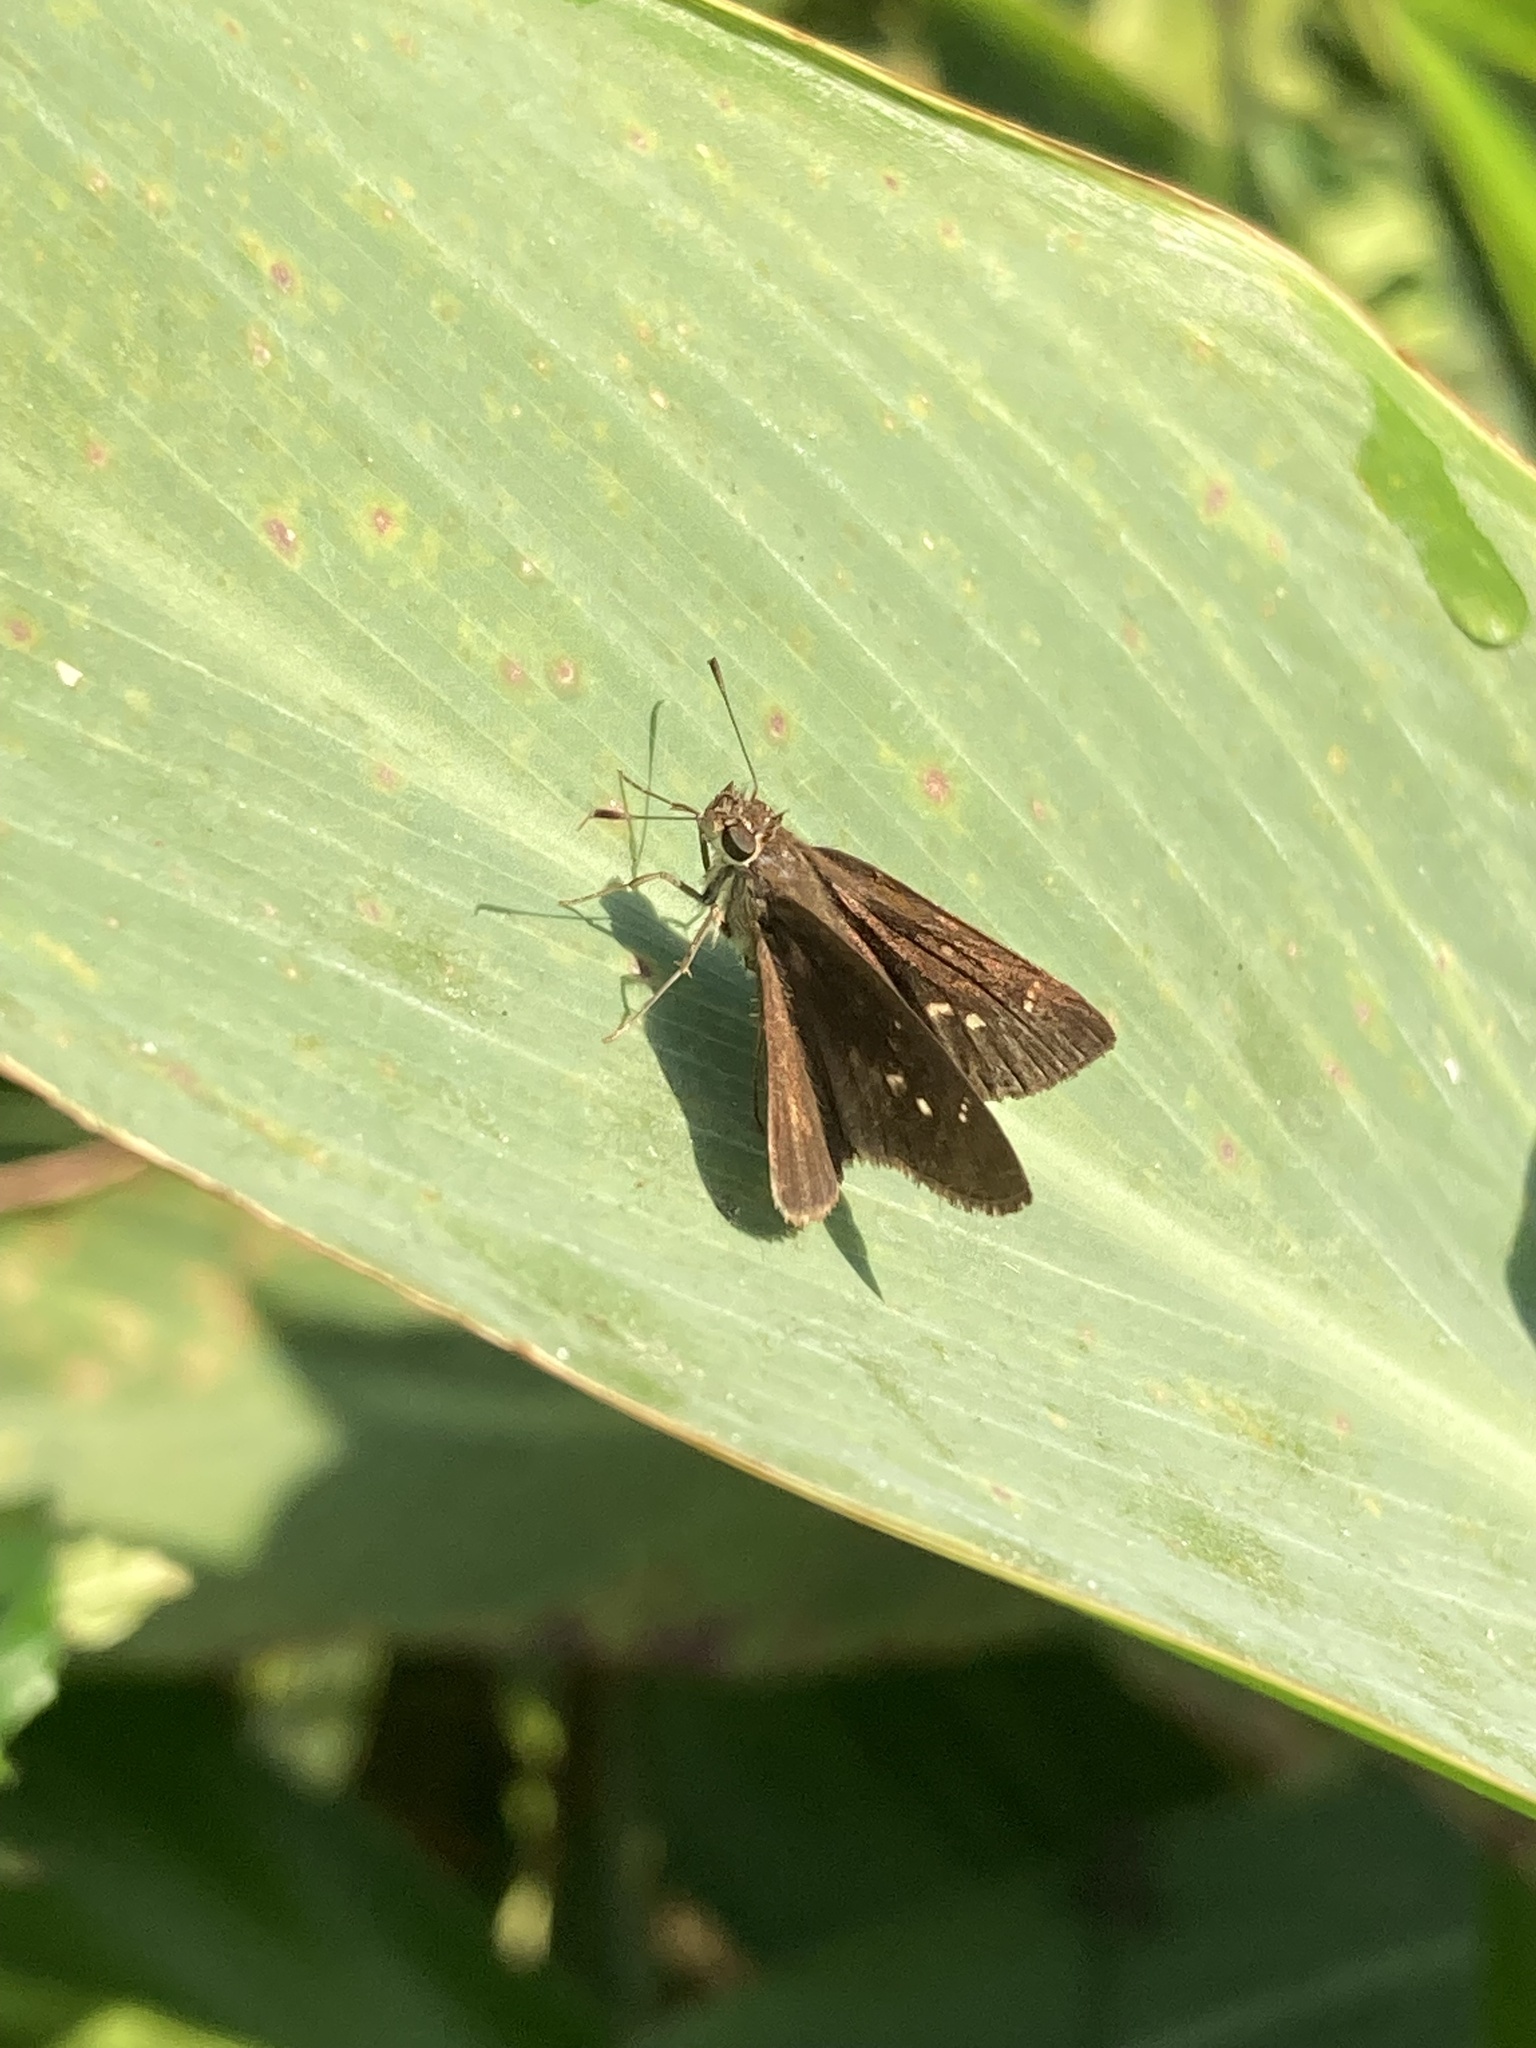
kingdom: Animalia
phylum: Arthropoda
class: Insecta
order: Lepidoptera
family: Hesperiidae
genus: Cymaenes
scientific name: Cymaenes tripunctus
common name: Dingy dotted skipper
